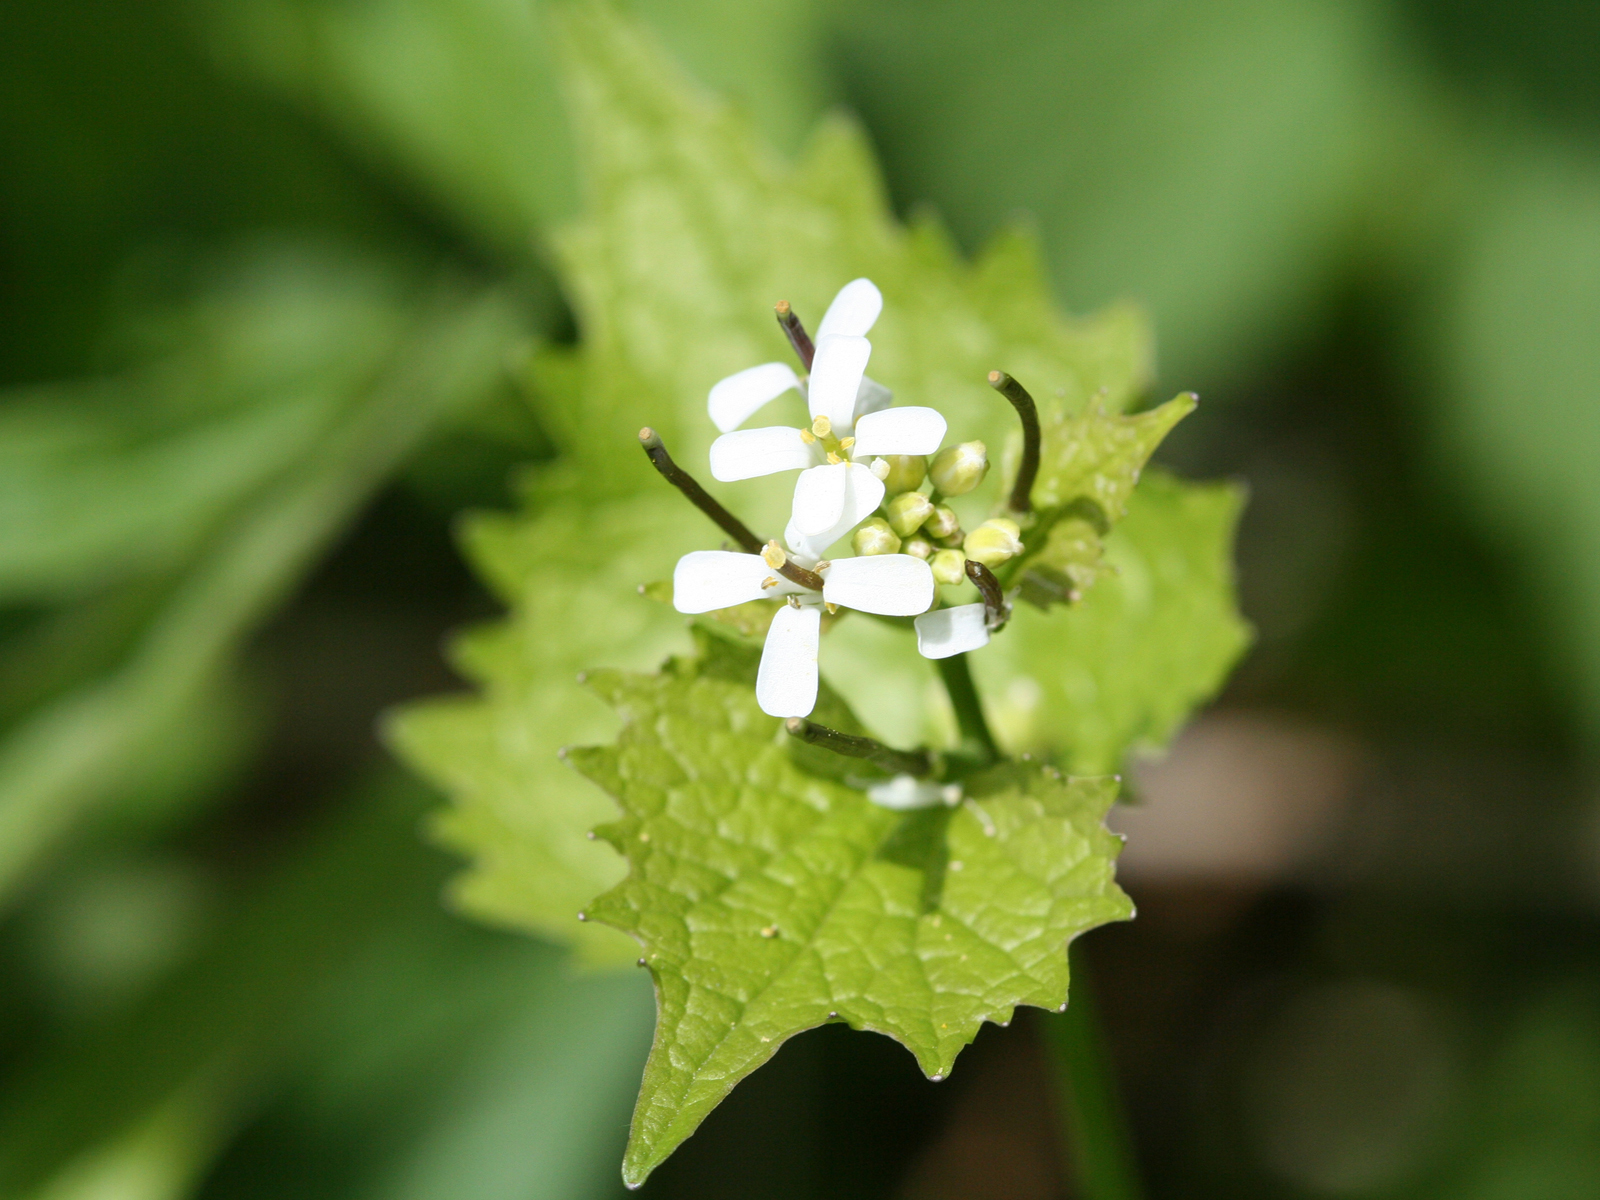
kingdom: Plantae
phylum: Tracheophyta
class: Magnoliopsida
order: Brassicales
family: Brassicaceae
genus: Alliaria
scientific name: Alliaria petiolata
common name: Garlic mustard
